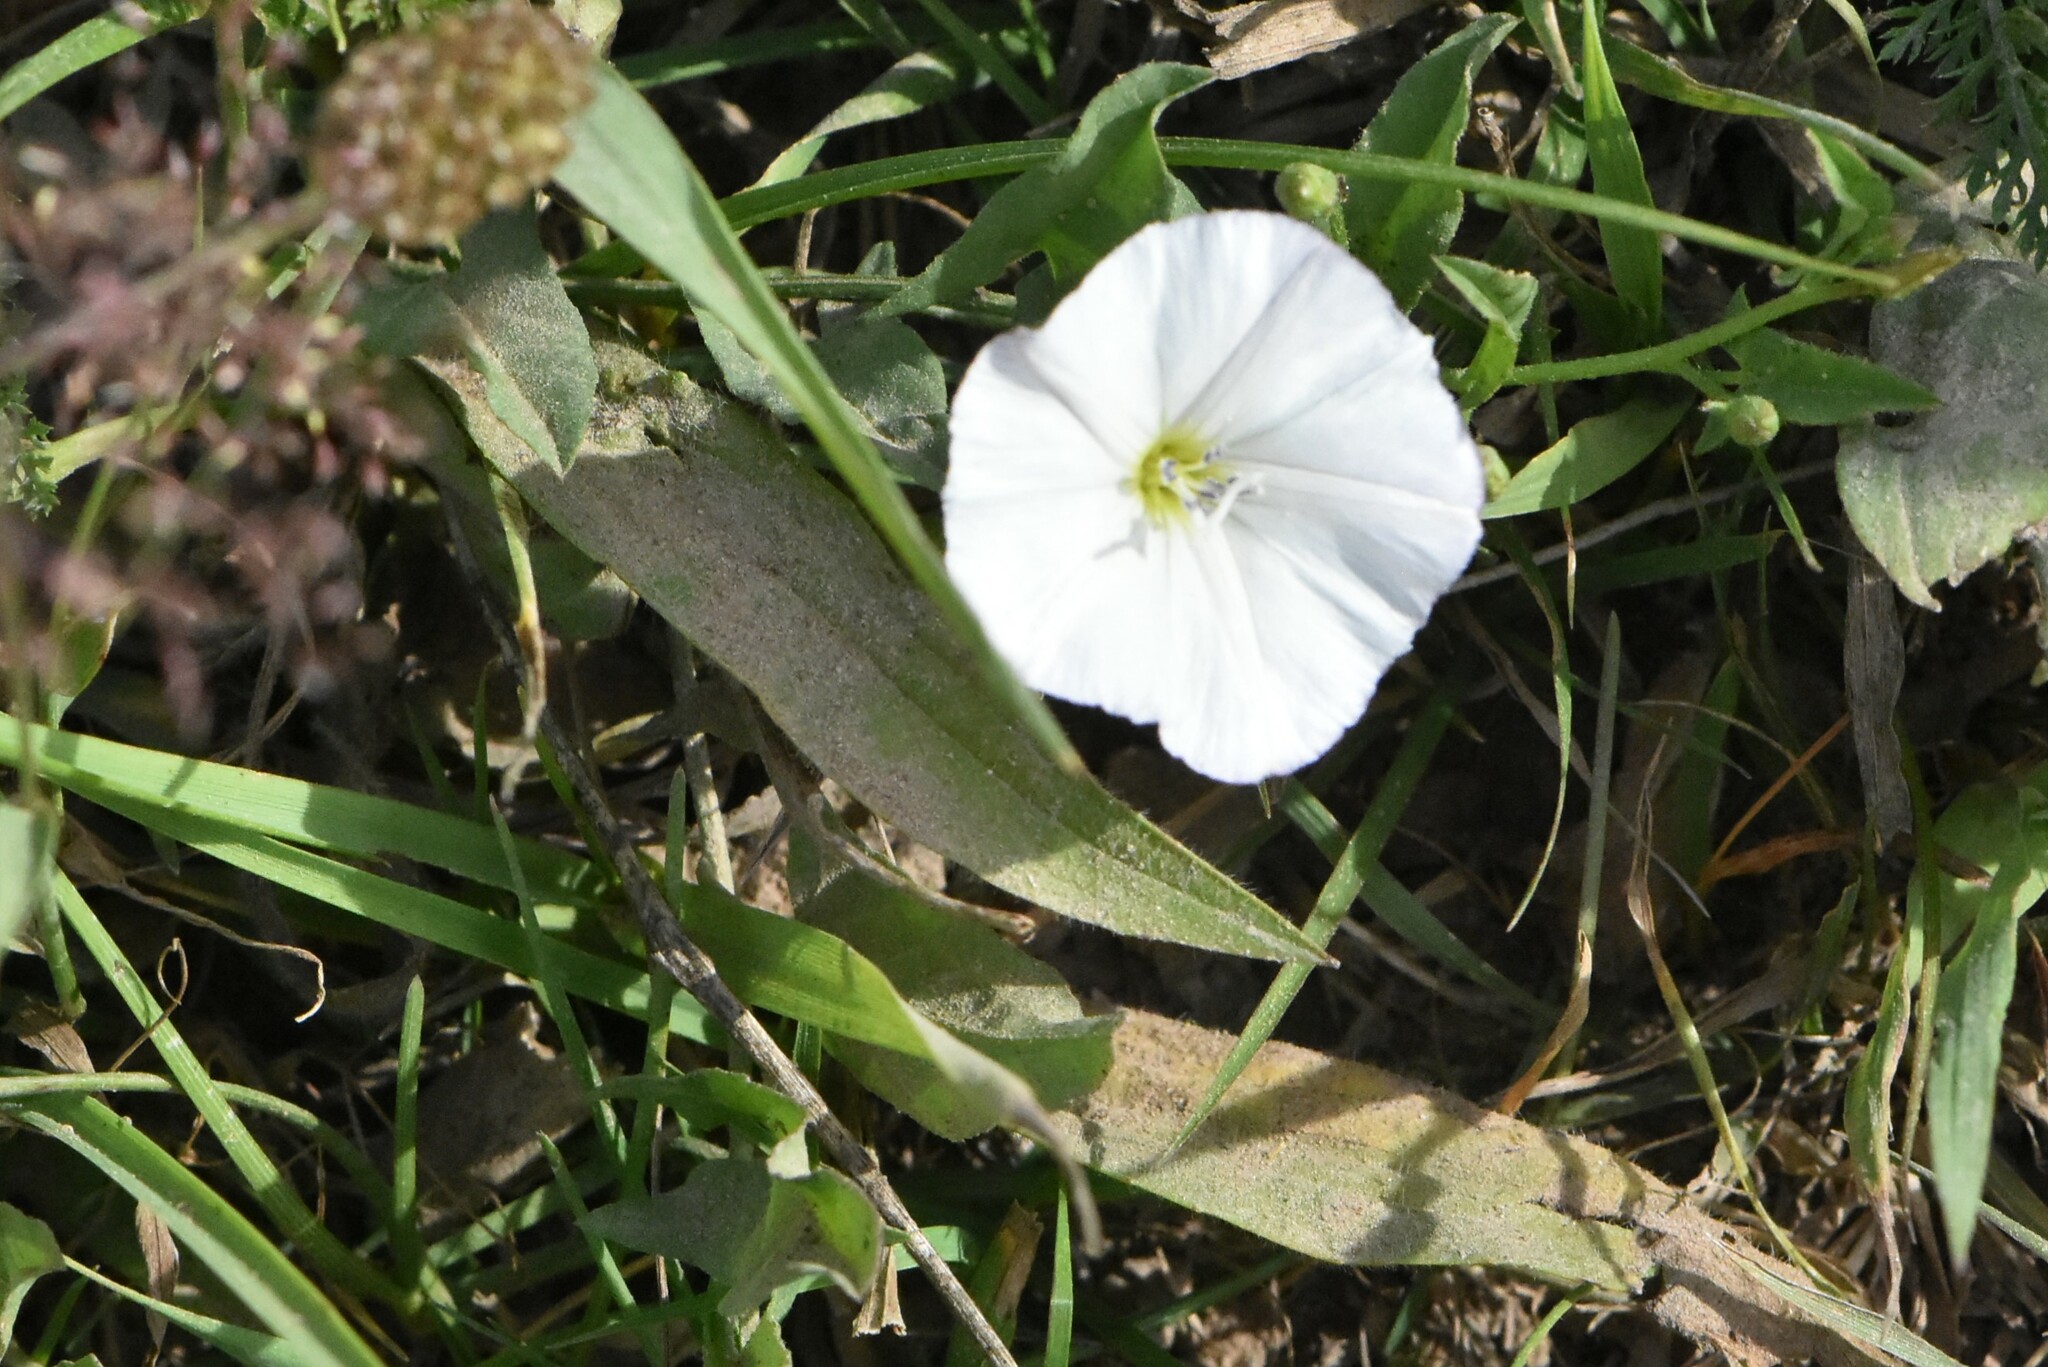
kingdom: Plantae
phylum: Tracheophyta
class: Magnoliopsida
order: Solanales
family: Convolvulaceae
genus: Convolvulus
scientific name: Convolvulus arvensis
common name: Field bindweed
